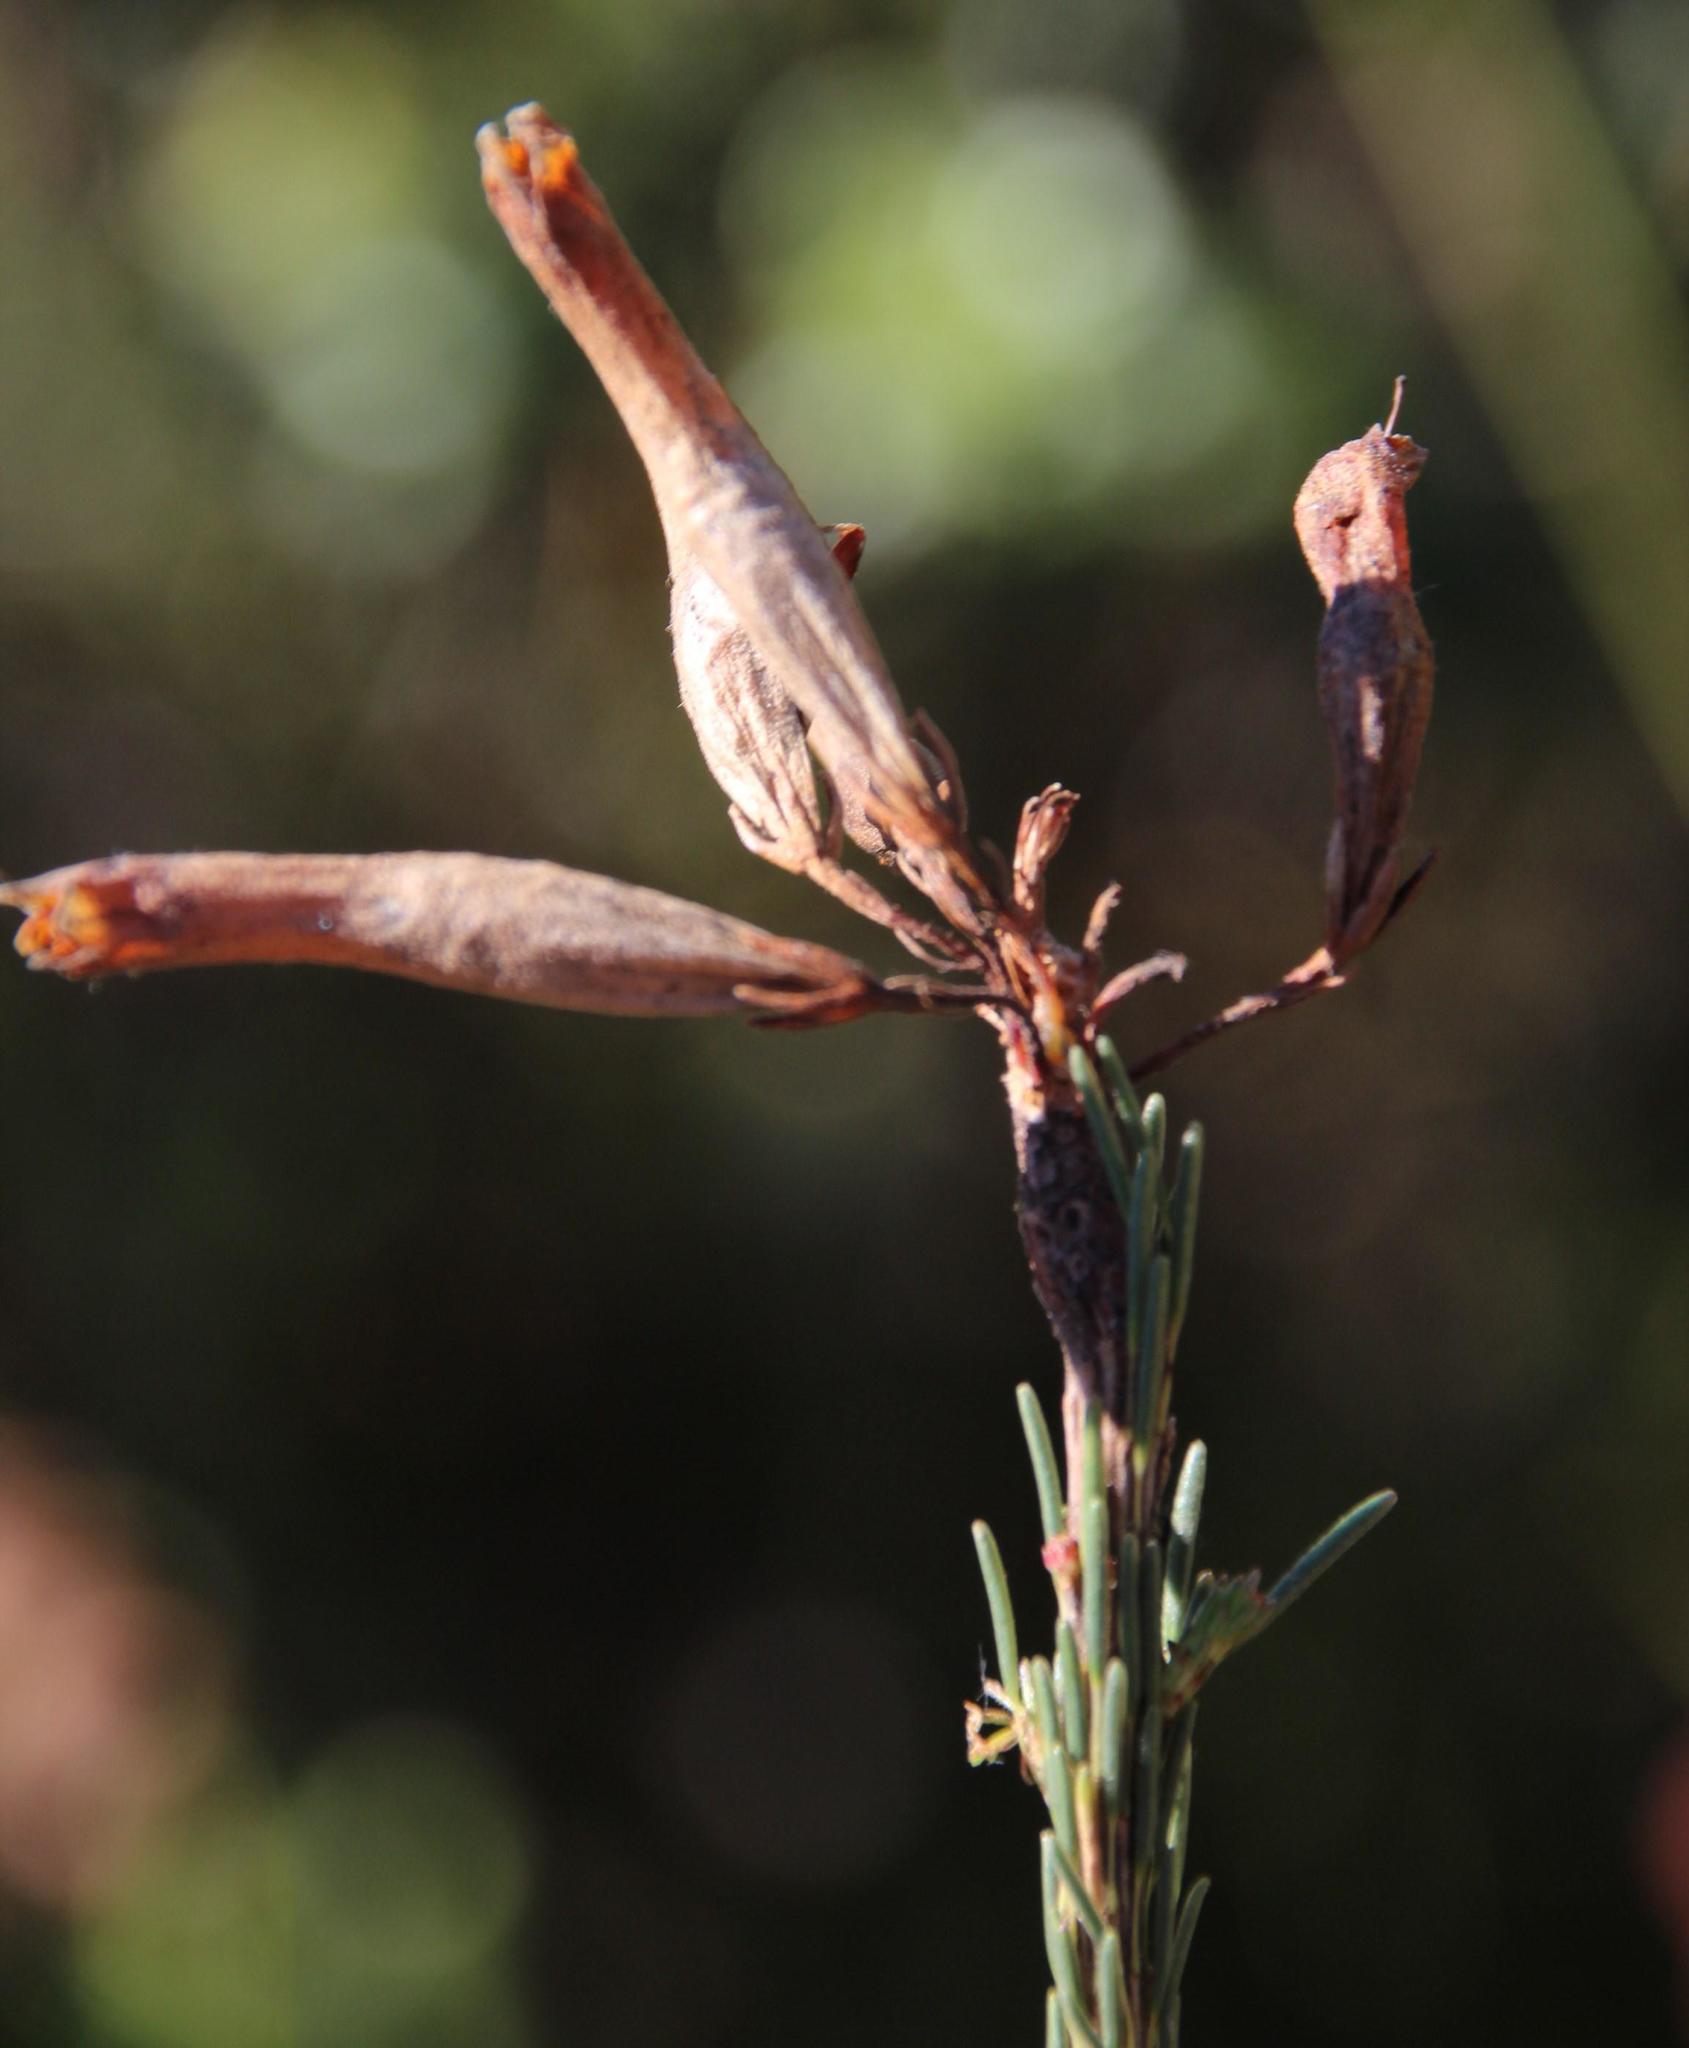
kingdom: Plantae
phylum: Tracheophyta
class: Magnoliopsida
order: Ericales
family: Ericaceae
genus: Erica
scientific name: Erica fascicularis
